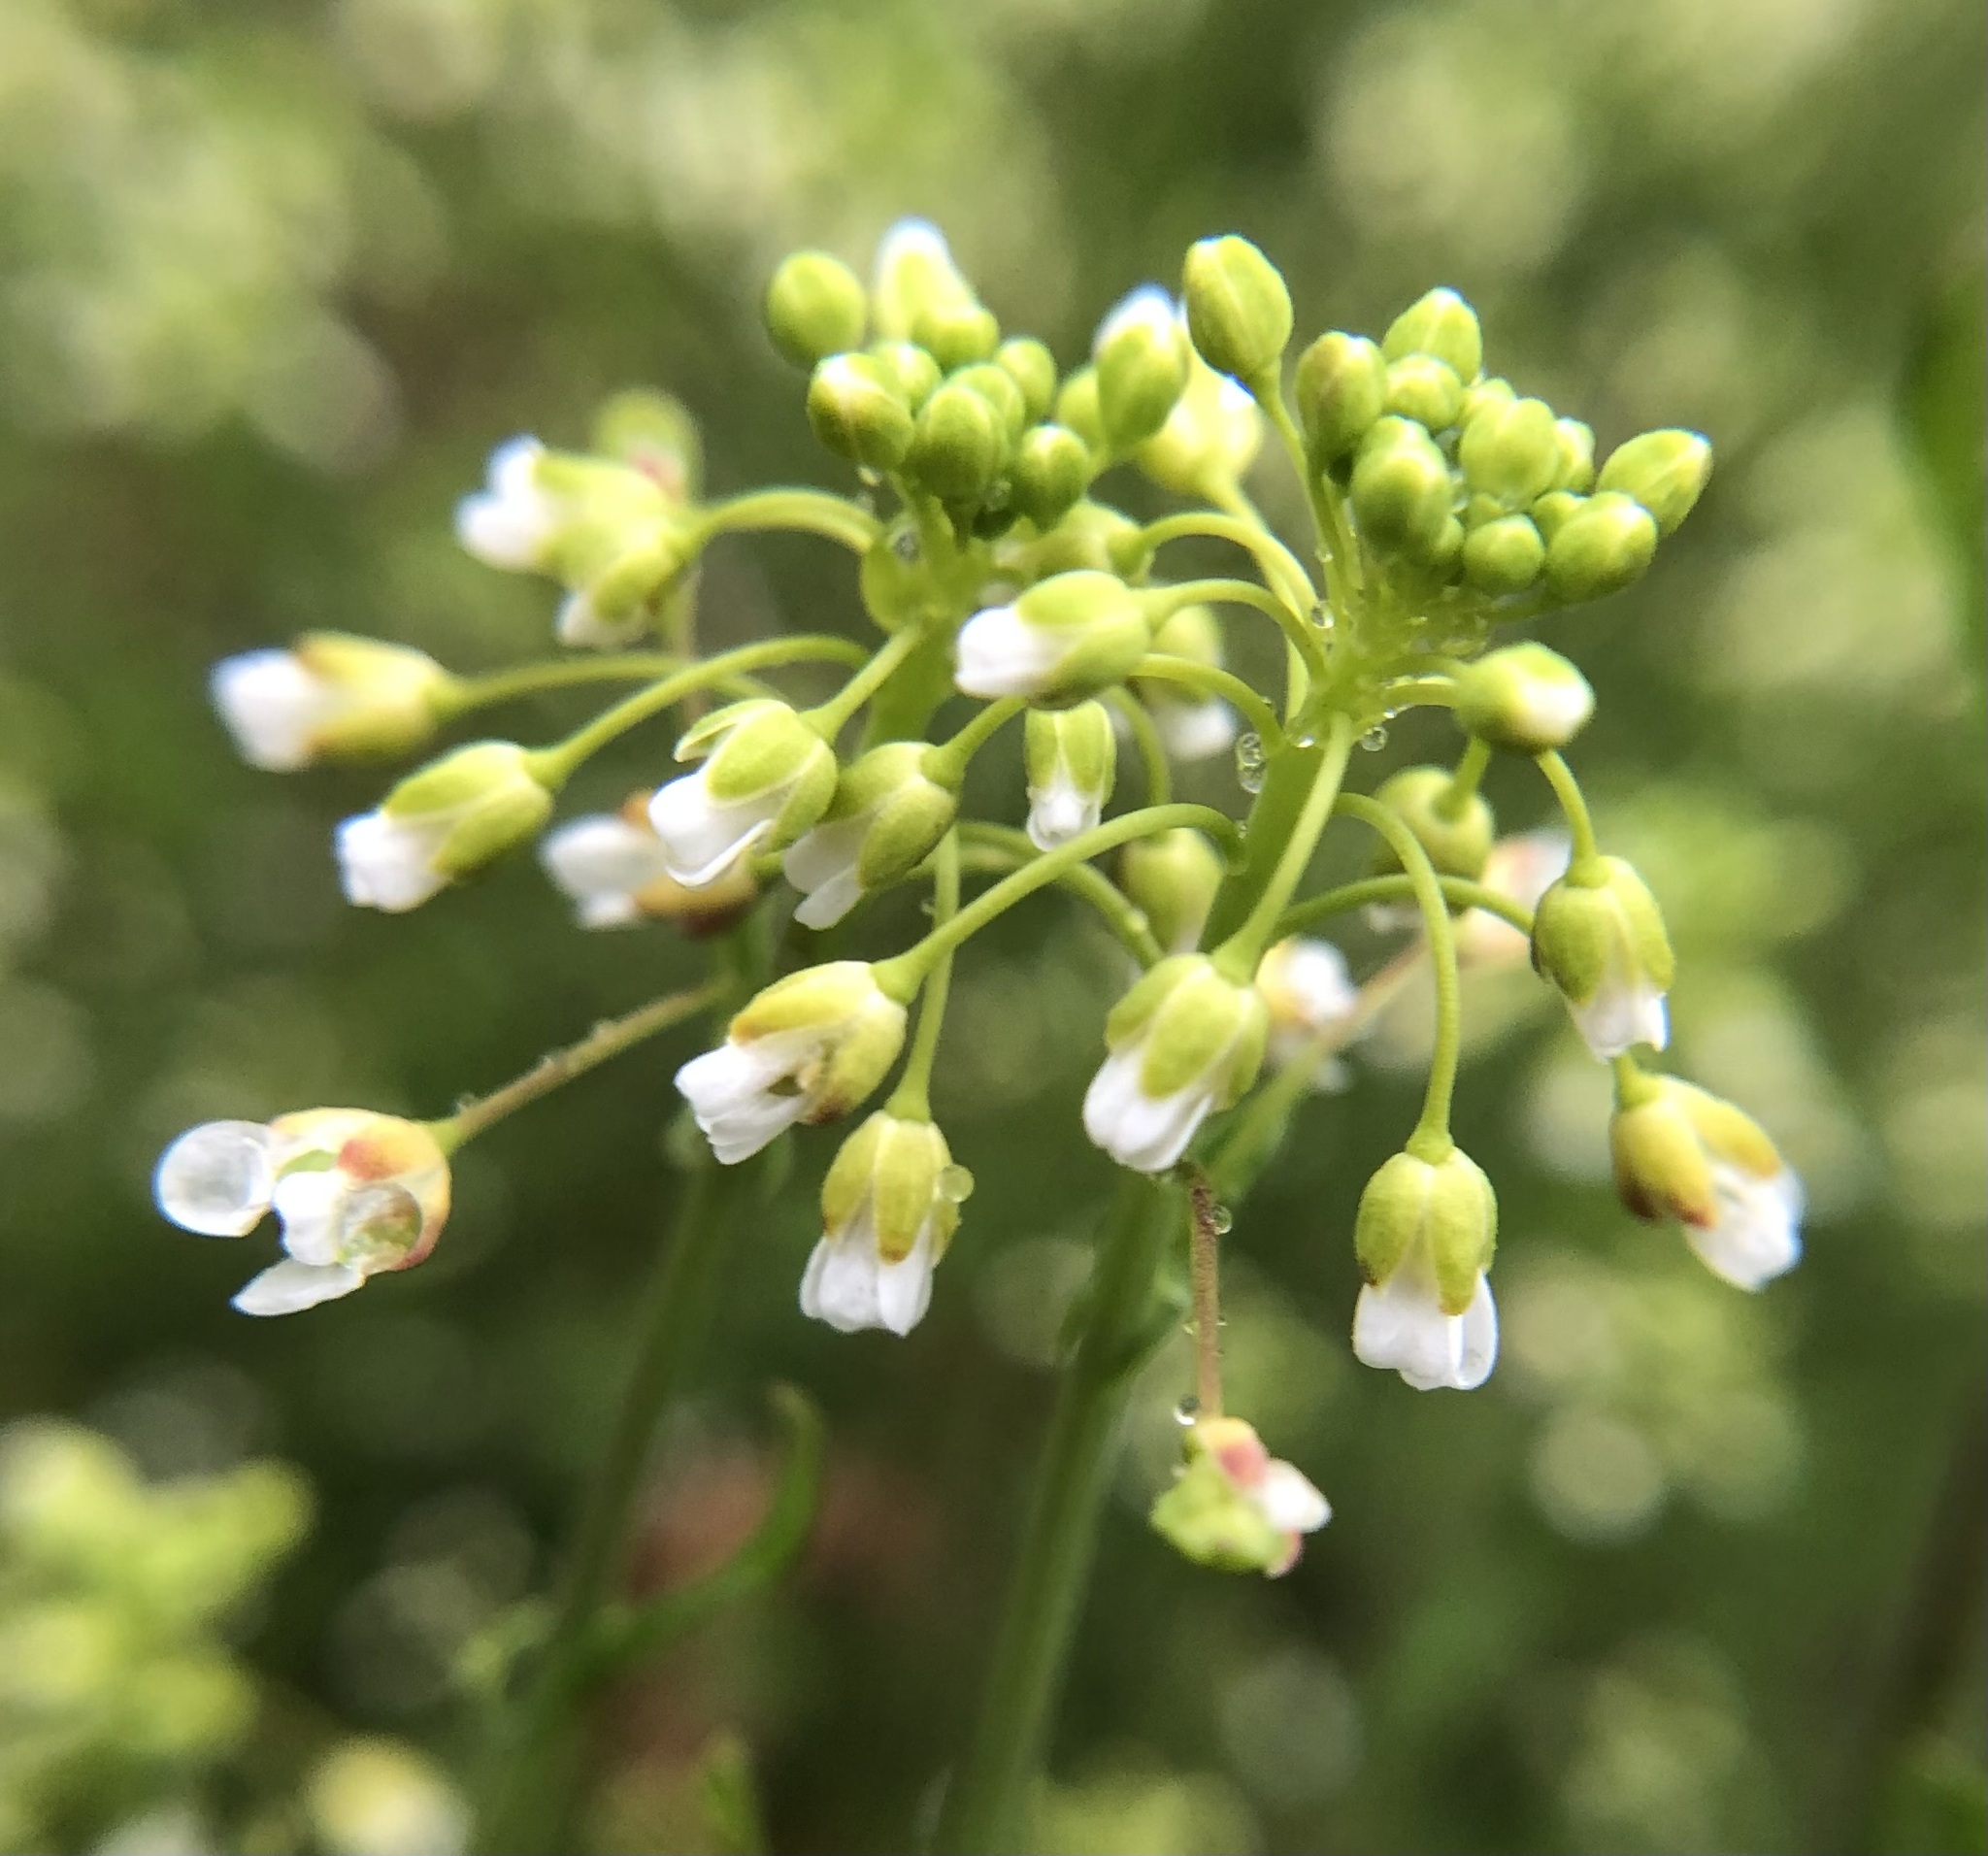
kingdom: Plantae
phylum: Tracheophyta
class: Magnoliopsida
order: Brassicales
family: Brassicaceae
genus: Mummenhoffia
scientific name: Mummenhoffia alliacea
